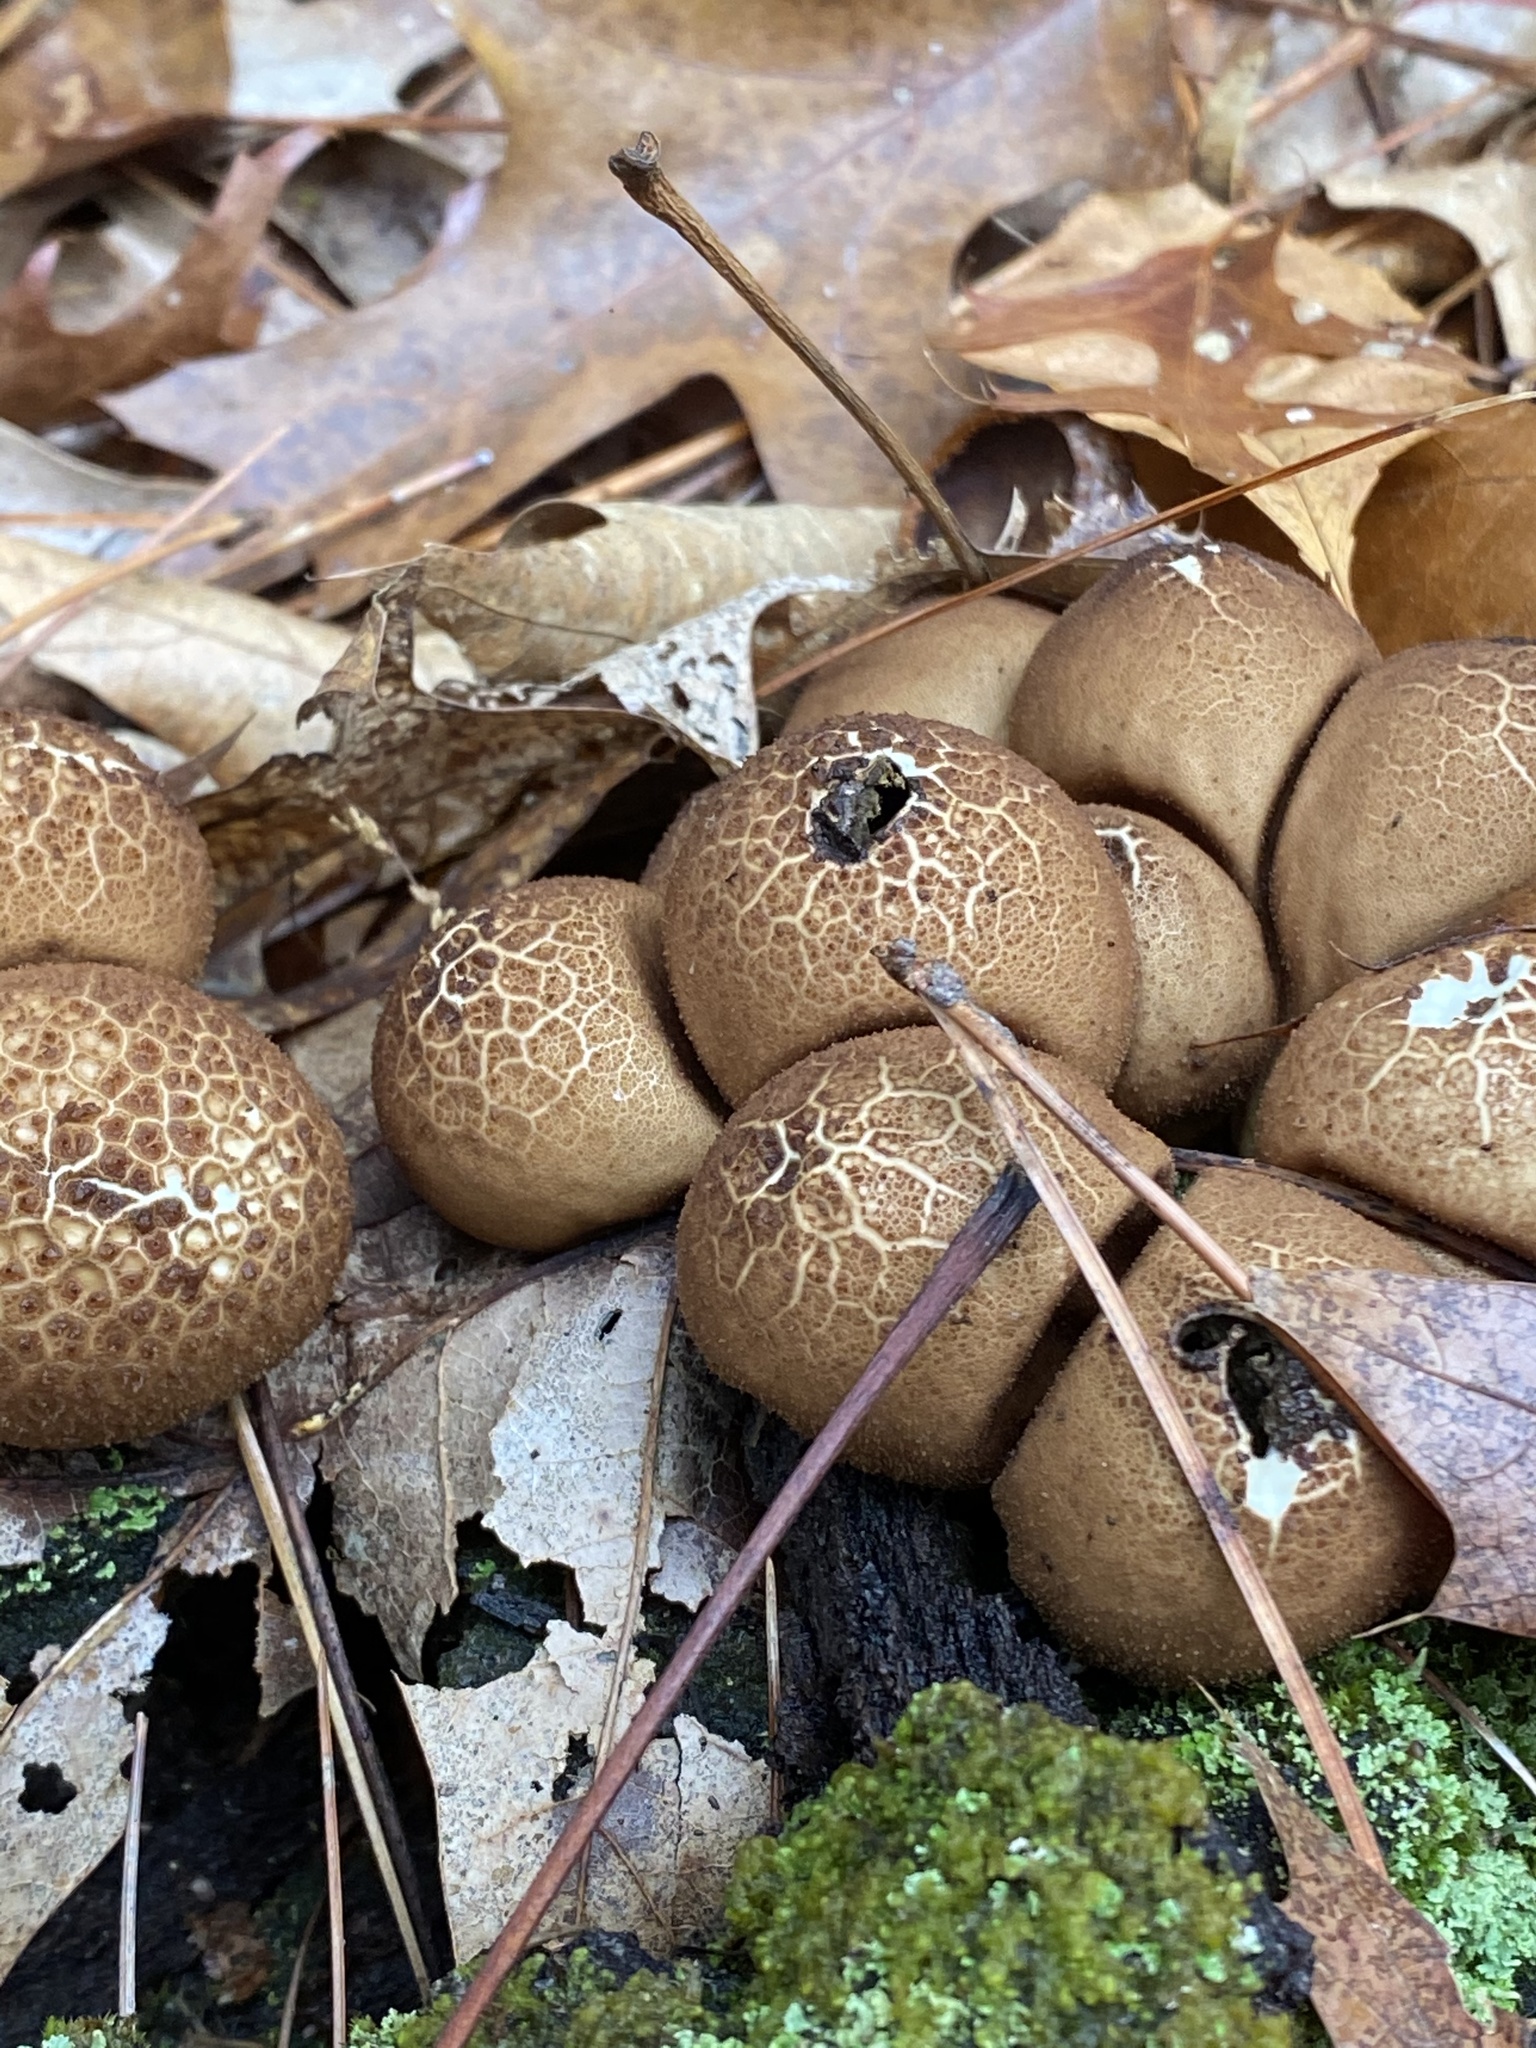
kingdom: Fungi
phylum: Basidiomycota
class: Agaricomycetes
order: Agaricales
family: Lycoperdaceae
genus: Apioperdon
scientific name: Apioperdon pyriforme
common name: Pear-shaped puffball
